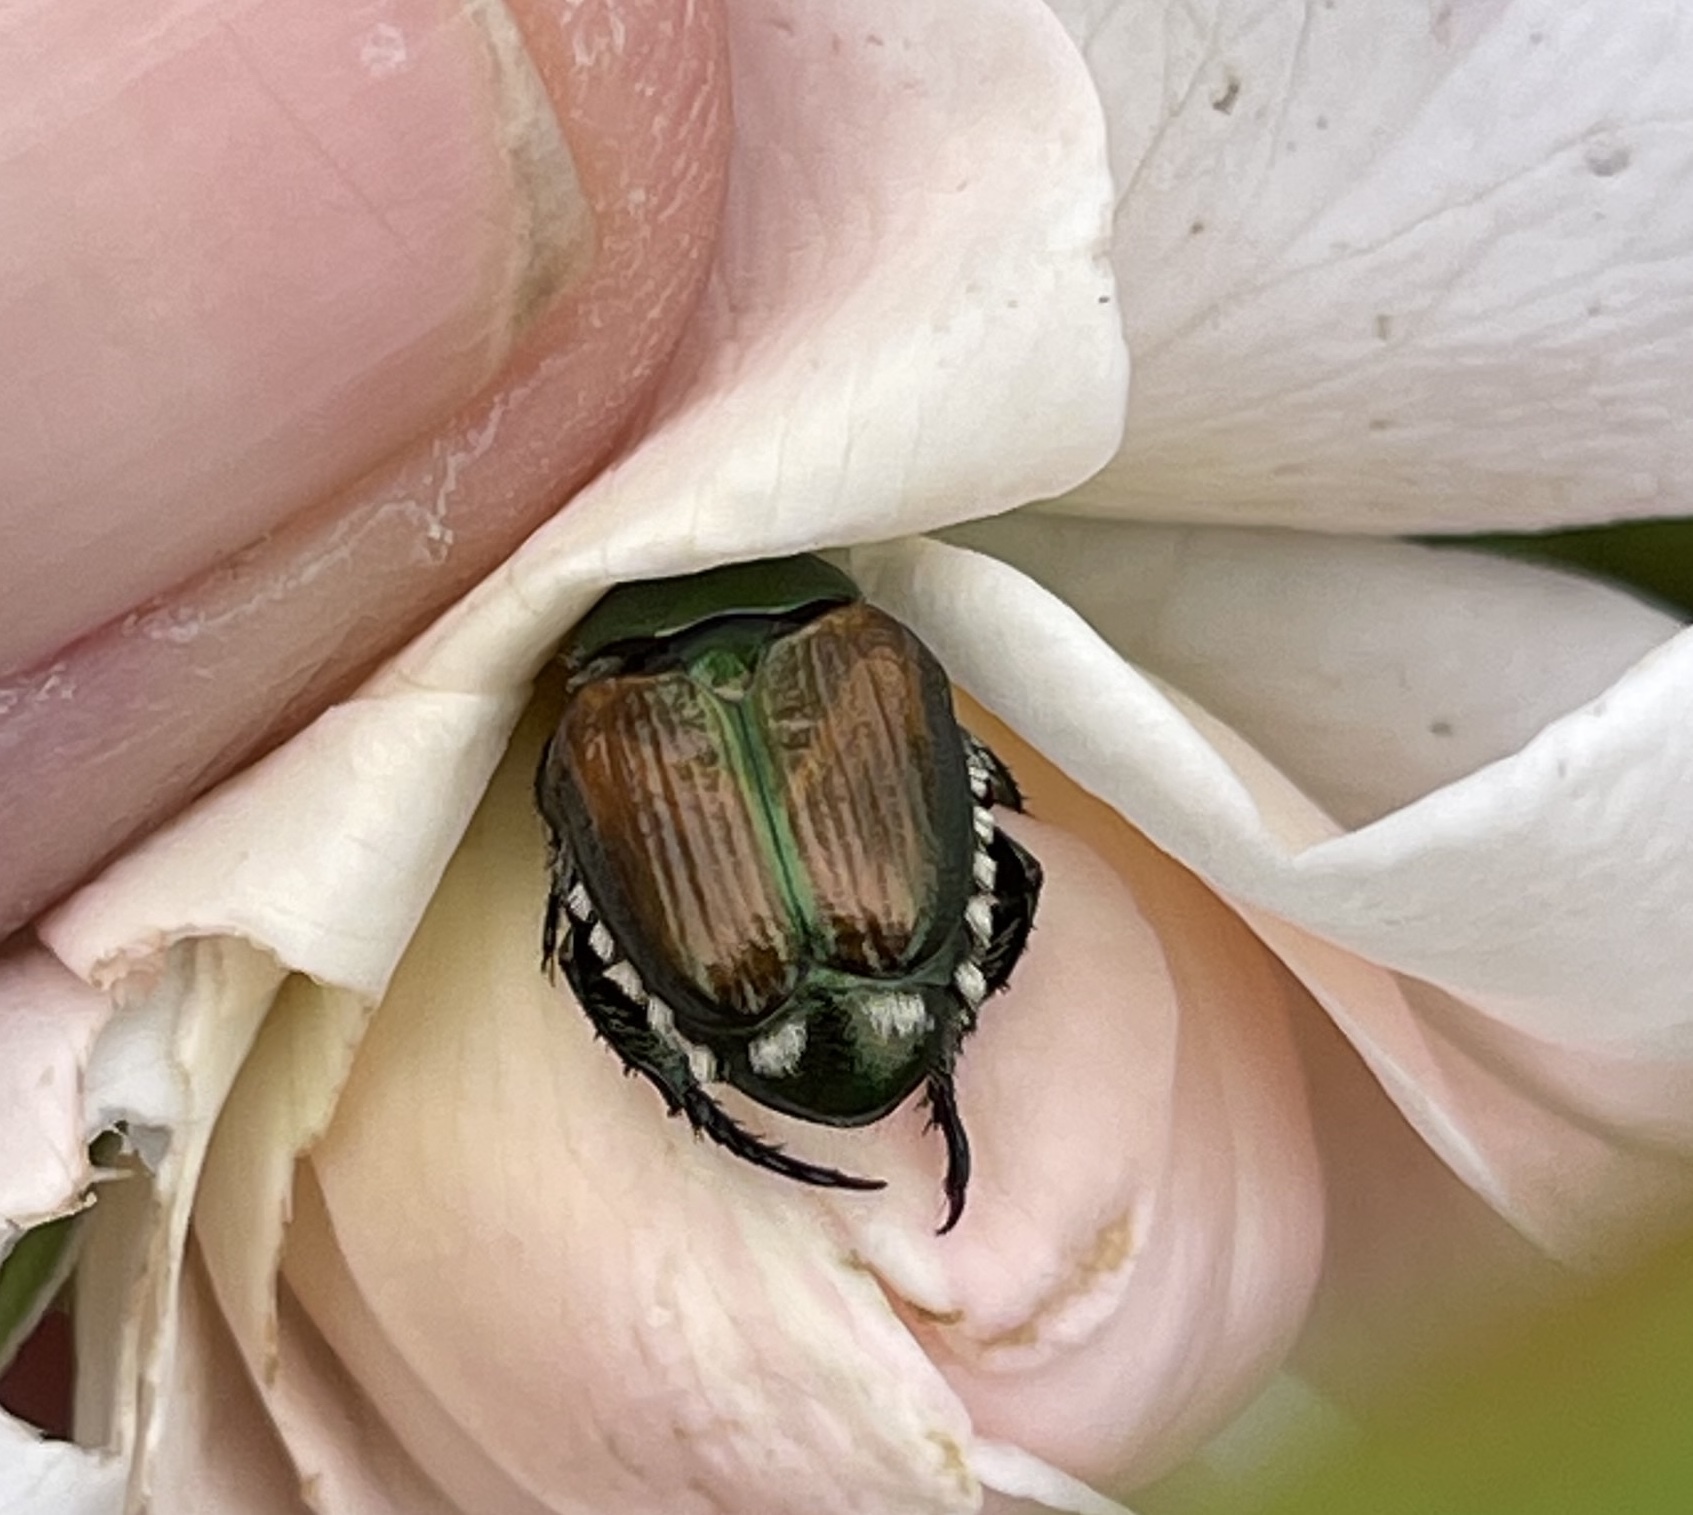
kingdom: Animalia
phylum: Arthropoda
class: Insecta
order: Coleoptera
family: Scarabaeidae
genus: Popillia
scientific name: Popillia japonica
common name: Japanese beetle
